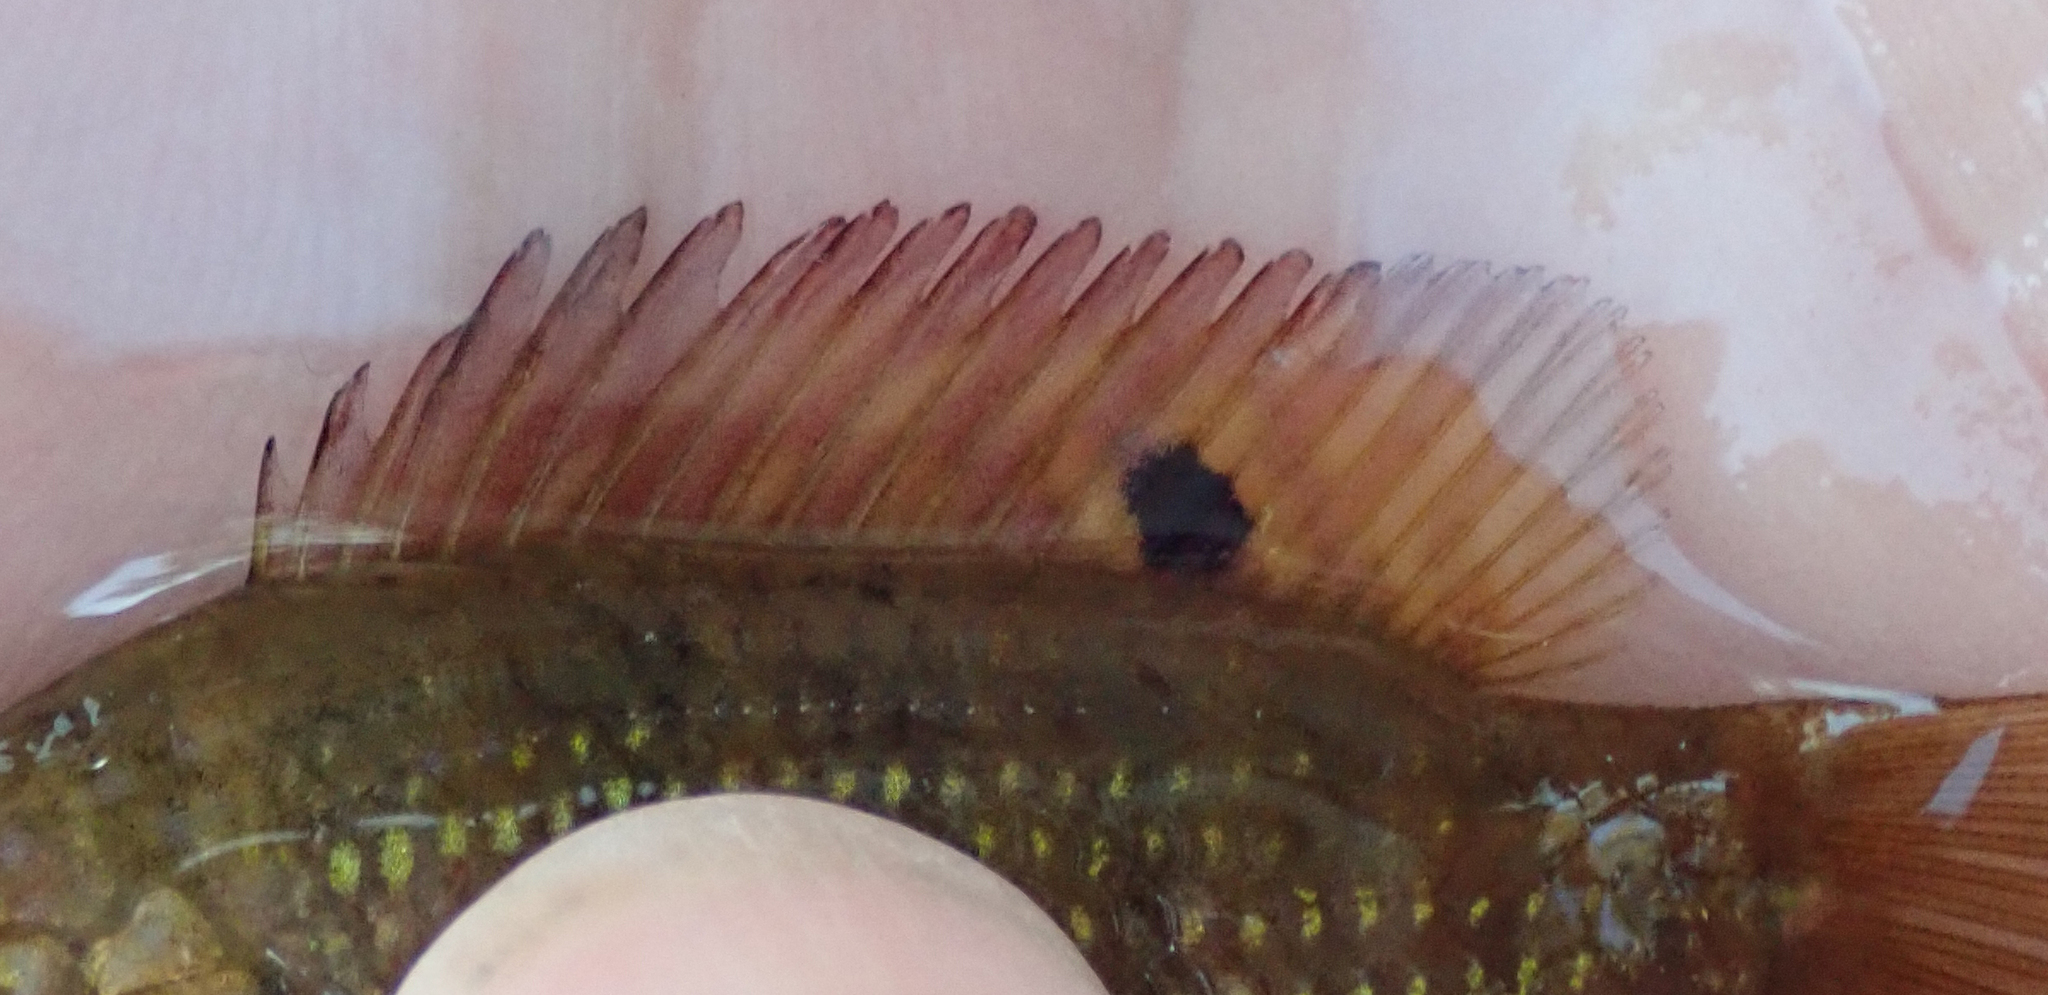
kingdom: Animalia
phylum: Chordata
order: Perciformes
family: Cichlidae
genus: Tilapia
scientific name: Tilapia sparrmanii
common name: Banded tilapia
